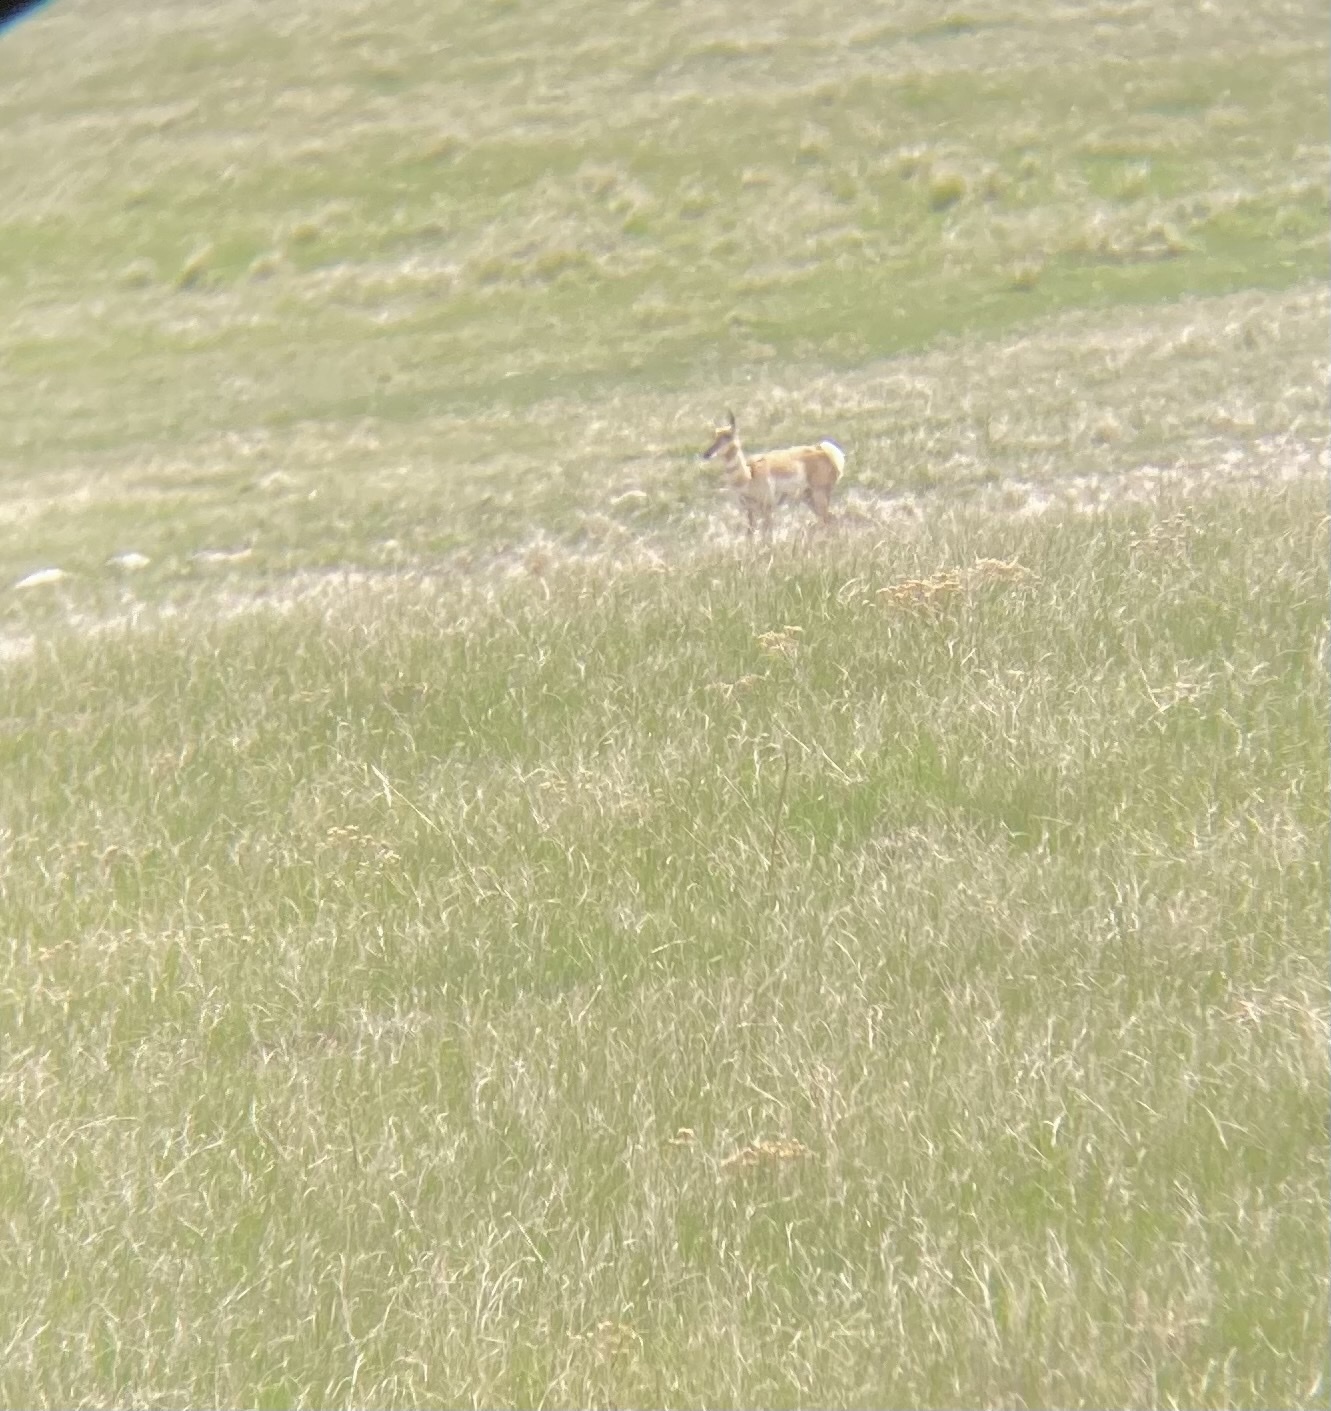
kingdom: Animalia
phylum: Chordata
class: Mammalia
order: Artiodactyla
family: Antilocapridae
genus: Antilocapra
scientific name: Antilocapra americana
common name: Pronghorn
